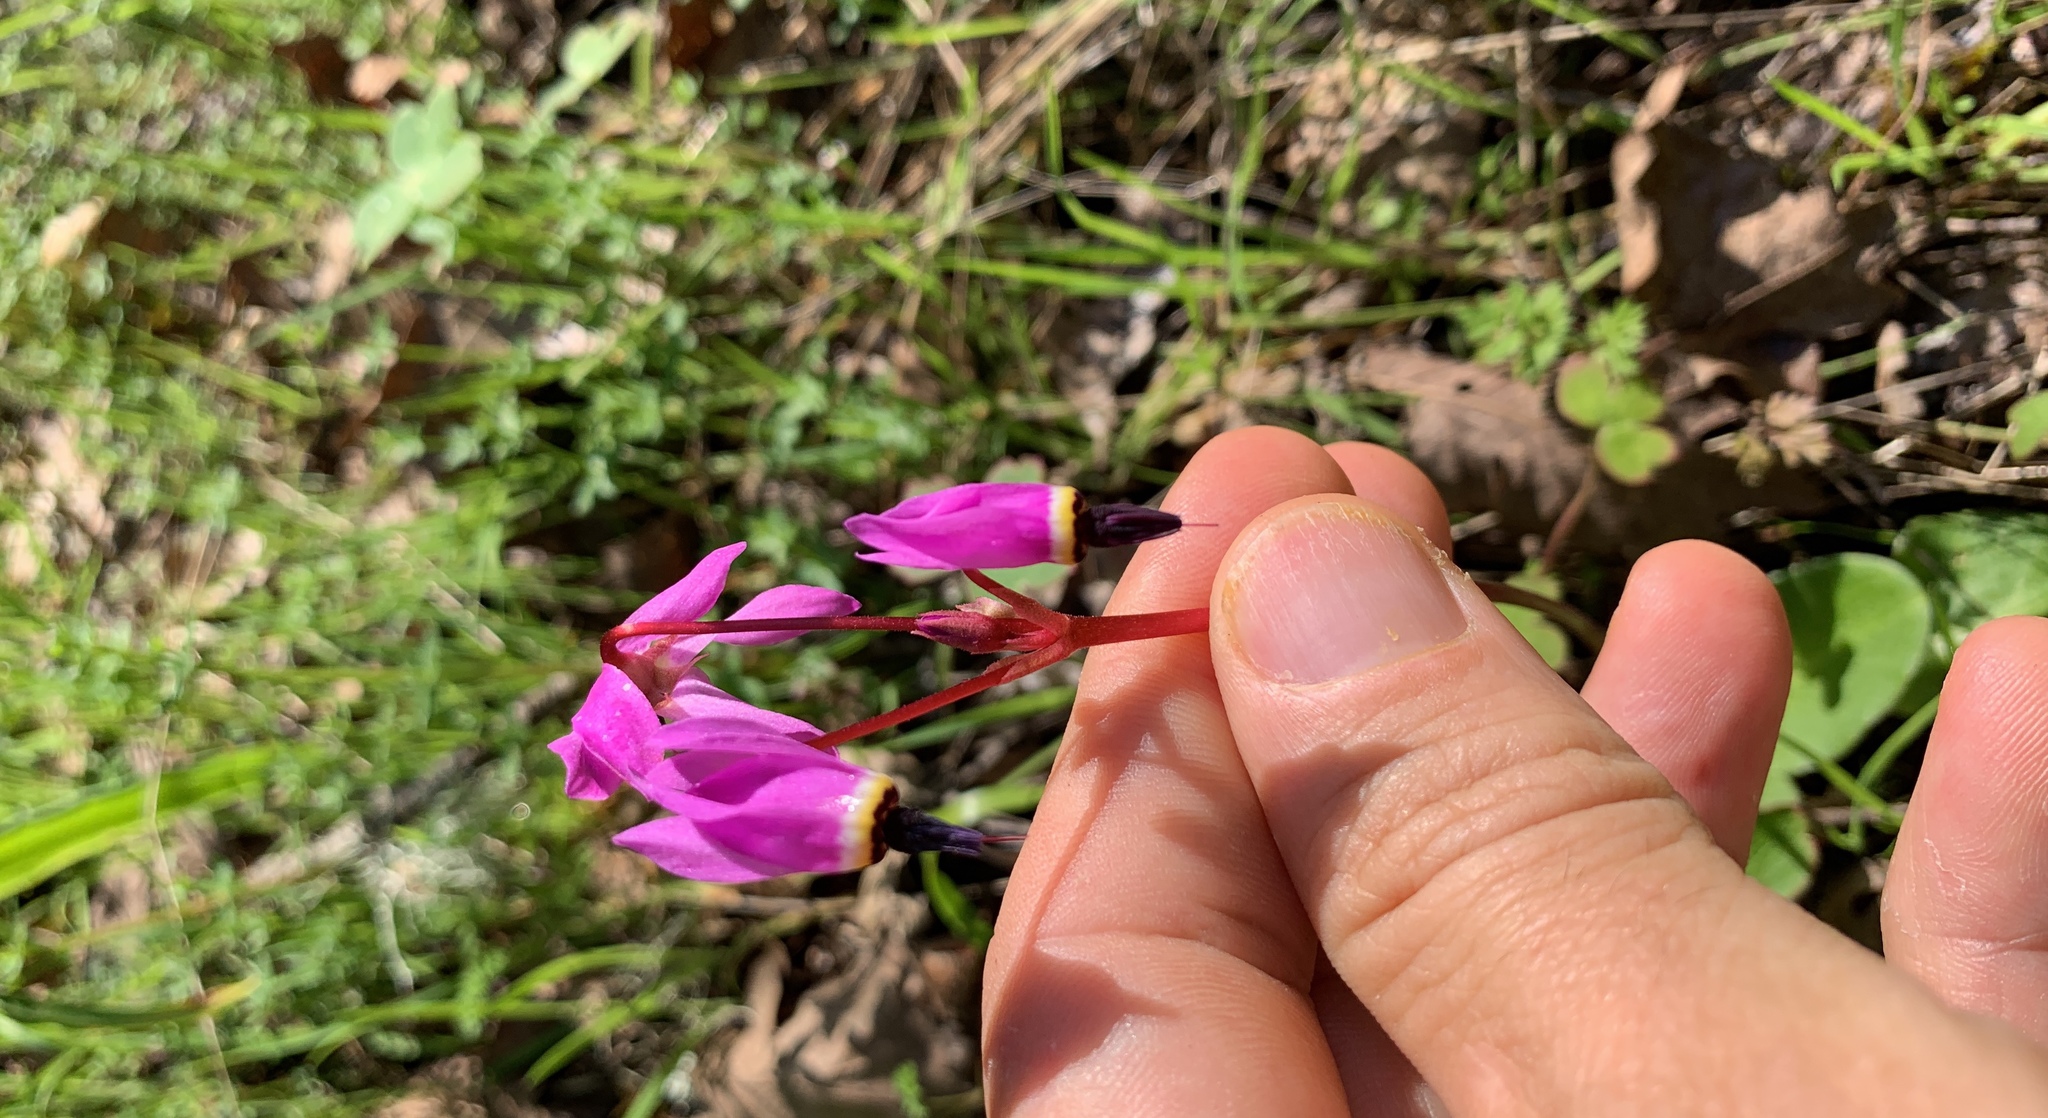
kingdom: Plantae
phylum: Tracheophyta
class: Magnoliopsida
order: Ericales
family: Primulaceae
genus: Dodecatheon
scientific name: Dodecatheon hendersonii
